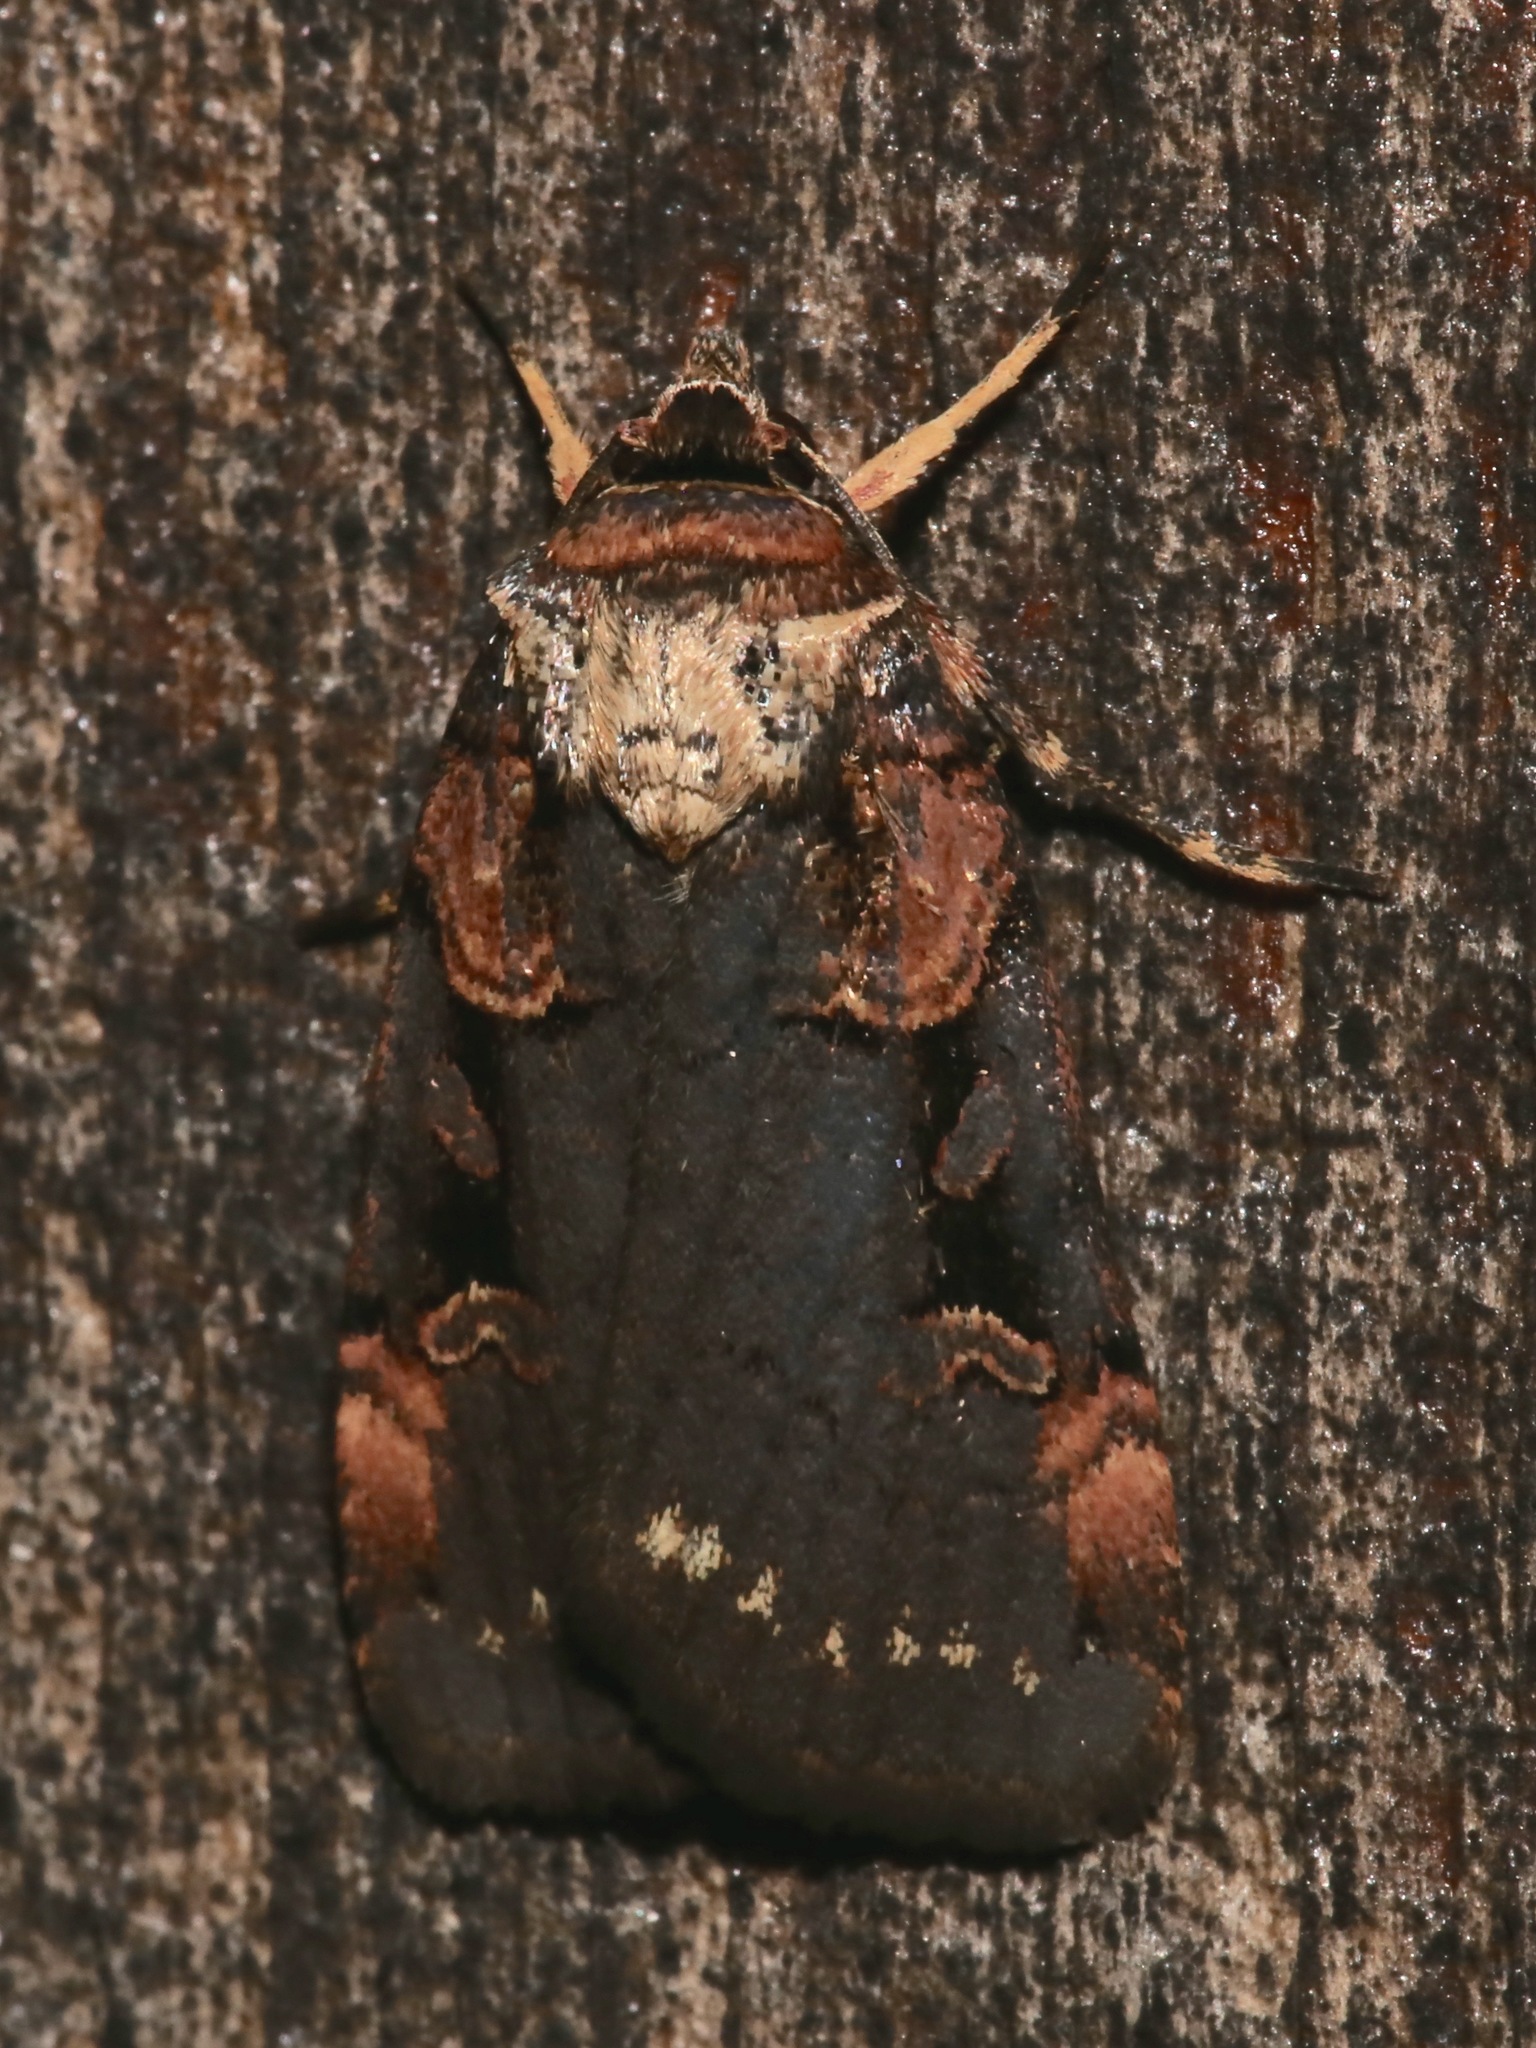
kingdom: Animalia
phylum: Arthropoda
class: Insecta
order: Lepidoptera
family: Noctuidae
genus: Pseudohermonassa
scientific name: Pseudohermonassa bicarnea
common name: Pink spotted dart
